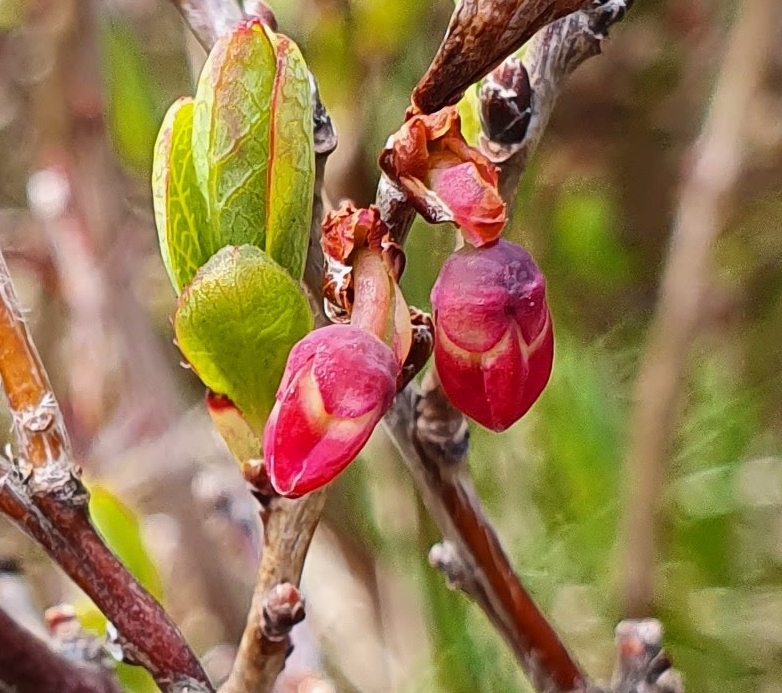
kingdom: Plantae
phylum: Tracheophyta
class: Magnoliopsida
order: Ericales
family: Ericaceae
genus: Vaccinium
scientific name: Vaccinium uliginosum
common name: Bog bilberry
